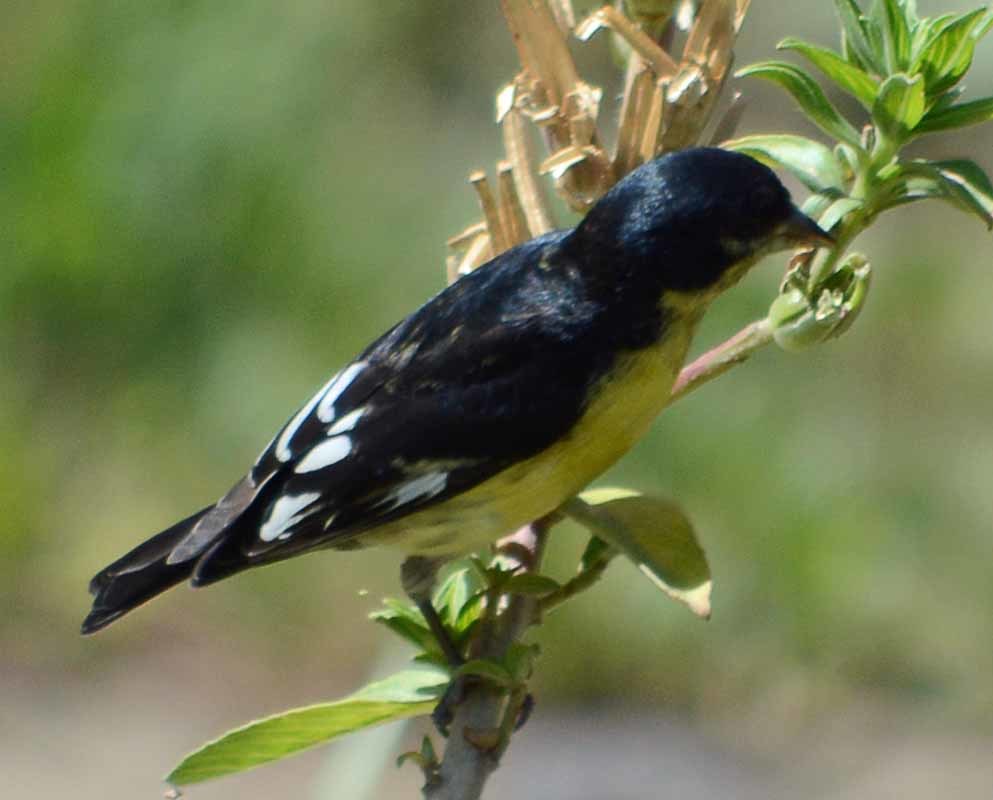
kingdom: Animalia
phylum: Chordata
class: Aves
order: Passeriformes
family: Fringillidae
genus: Spinus
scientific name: Spinus psaltria
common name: Lesser goldfinch
